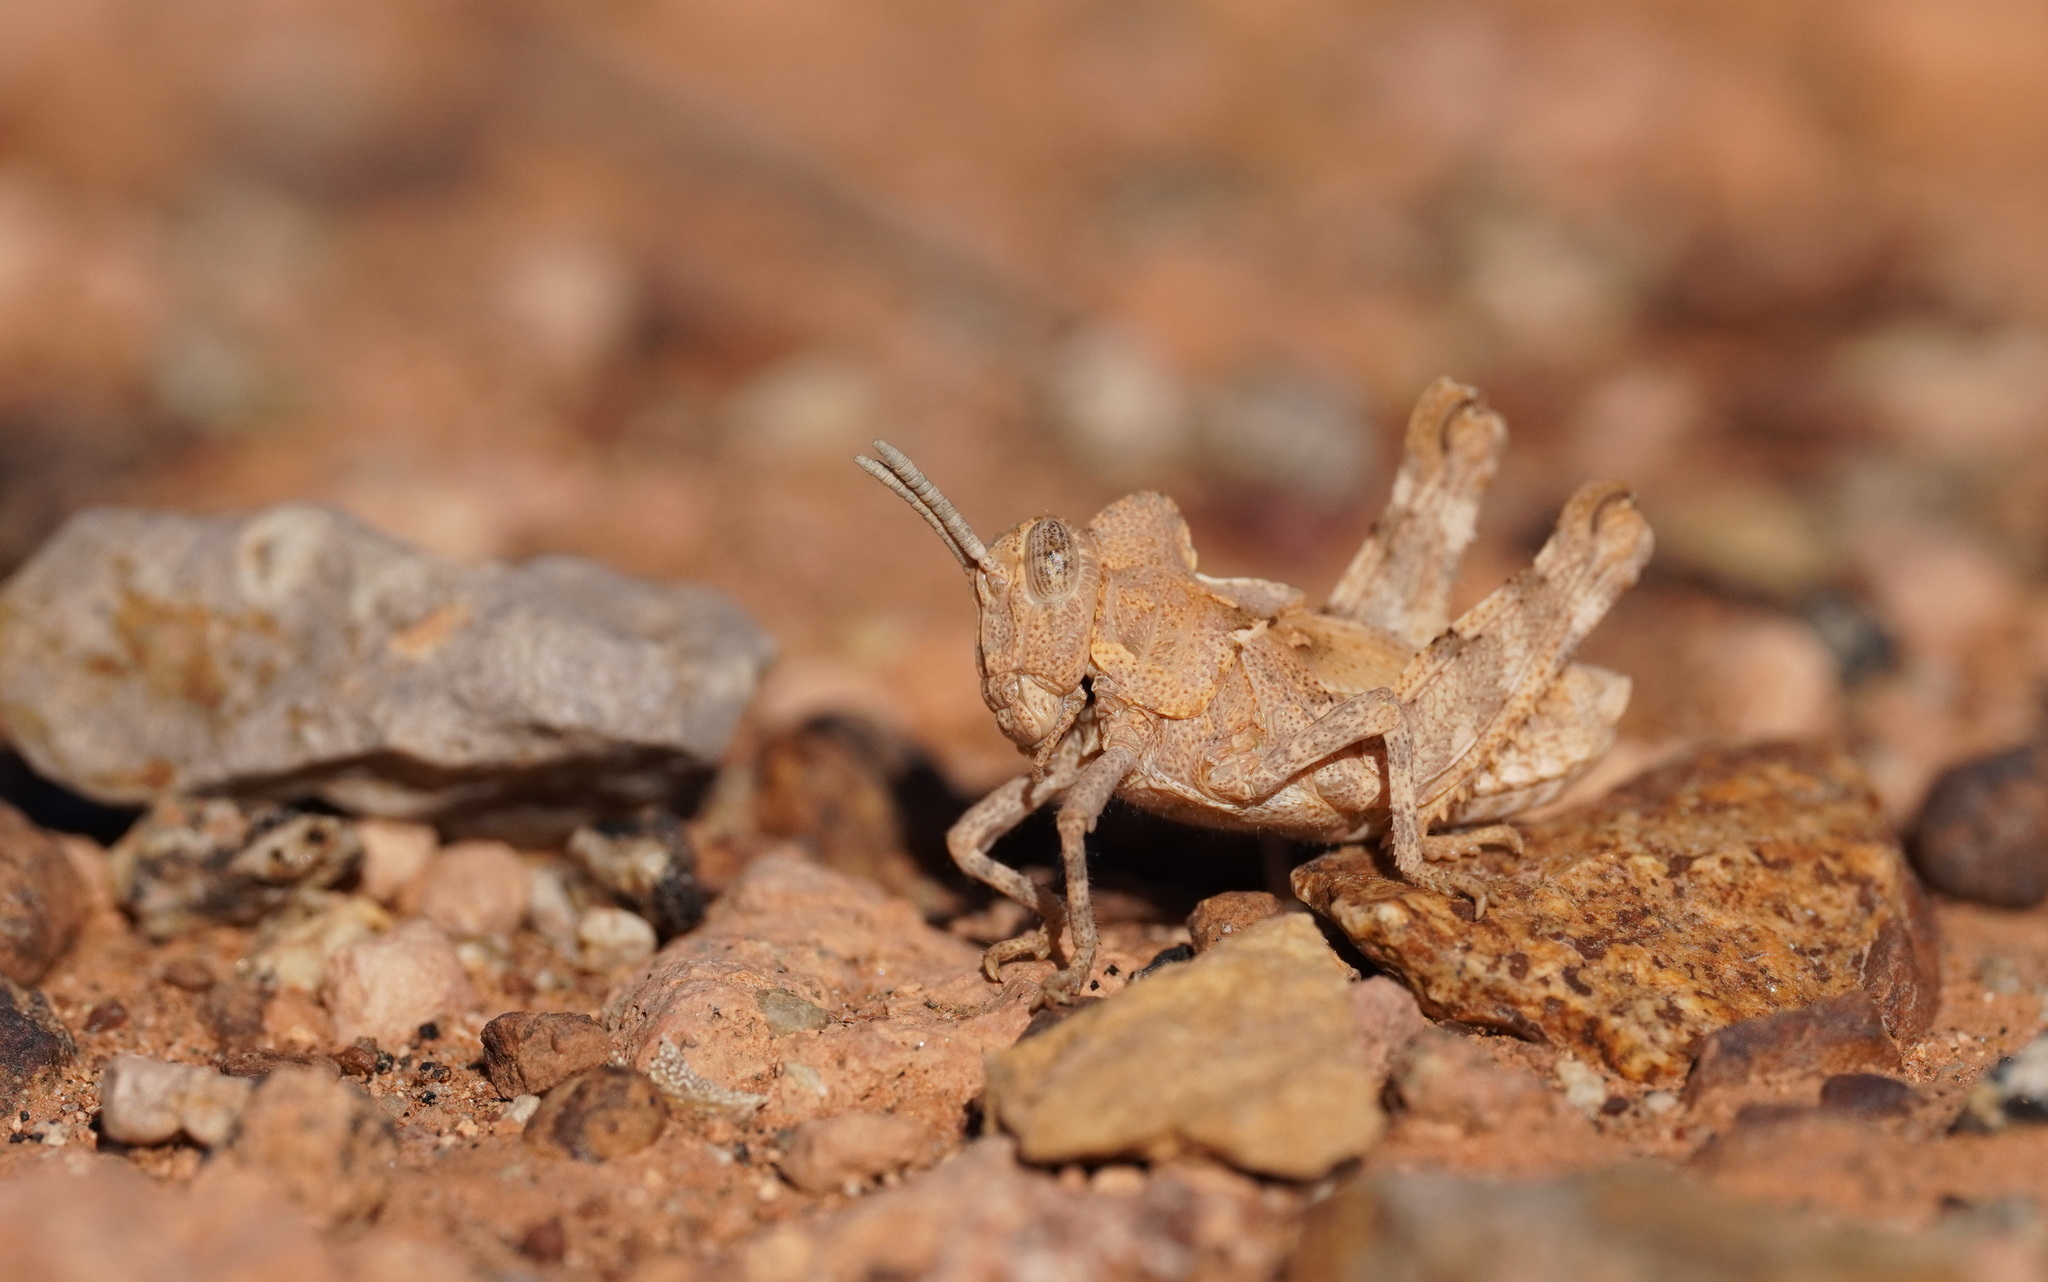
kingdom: Animalia
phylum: Arthropoda
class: Insecta
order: Orthoptera
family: Dericorythidae
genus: Dericorys
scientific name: Dericorys lobata
